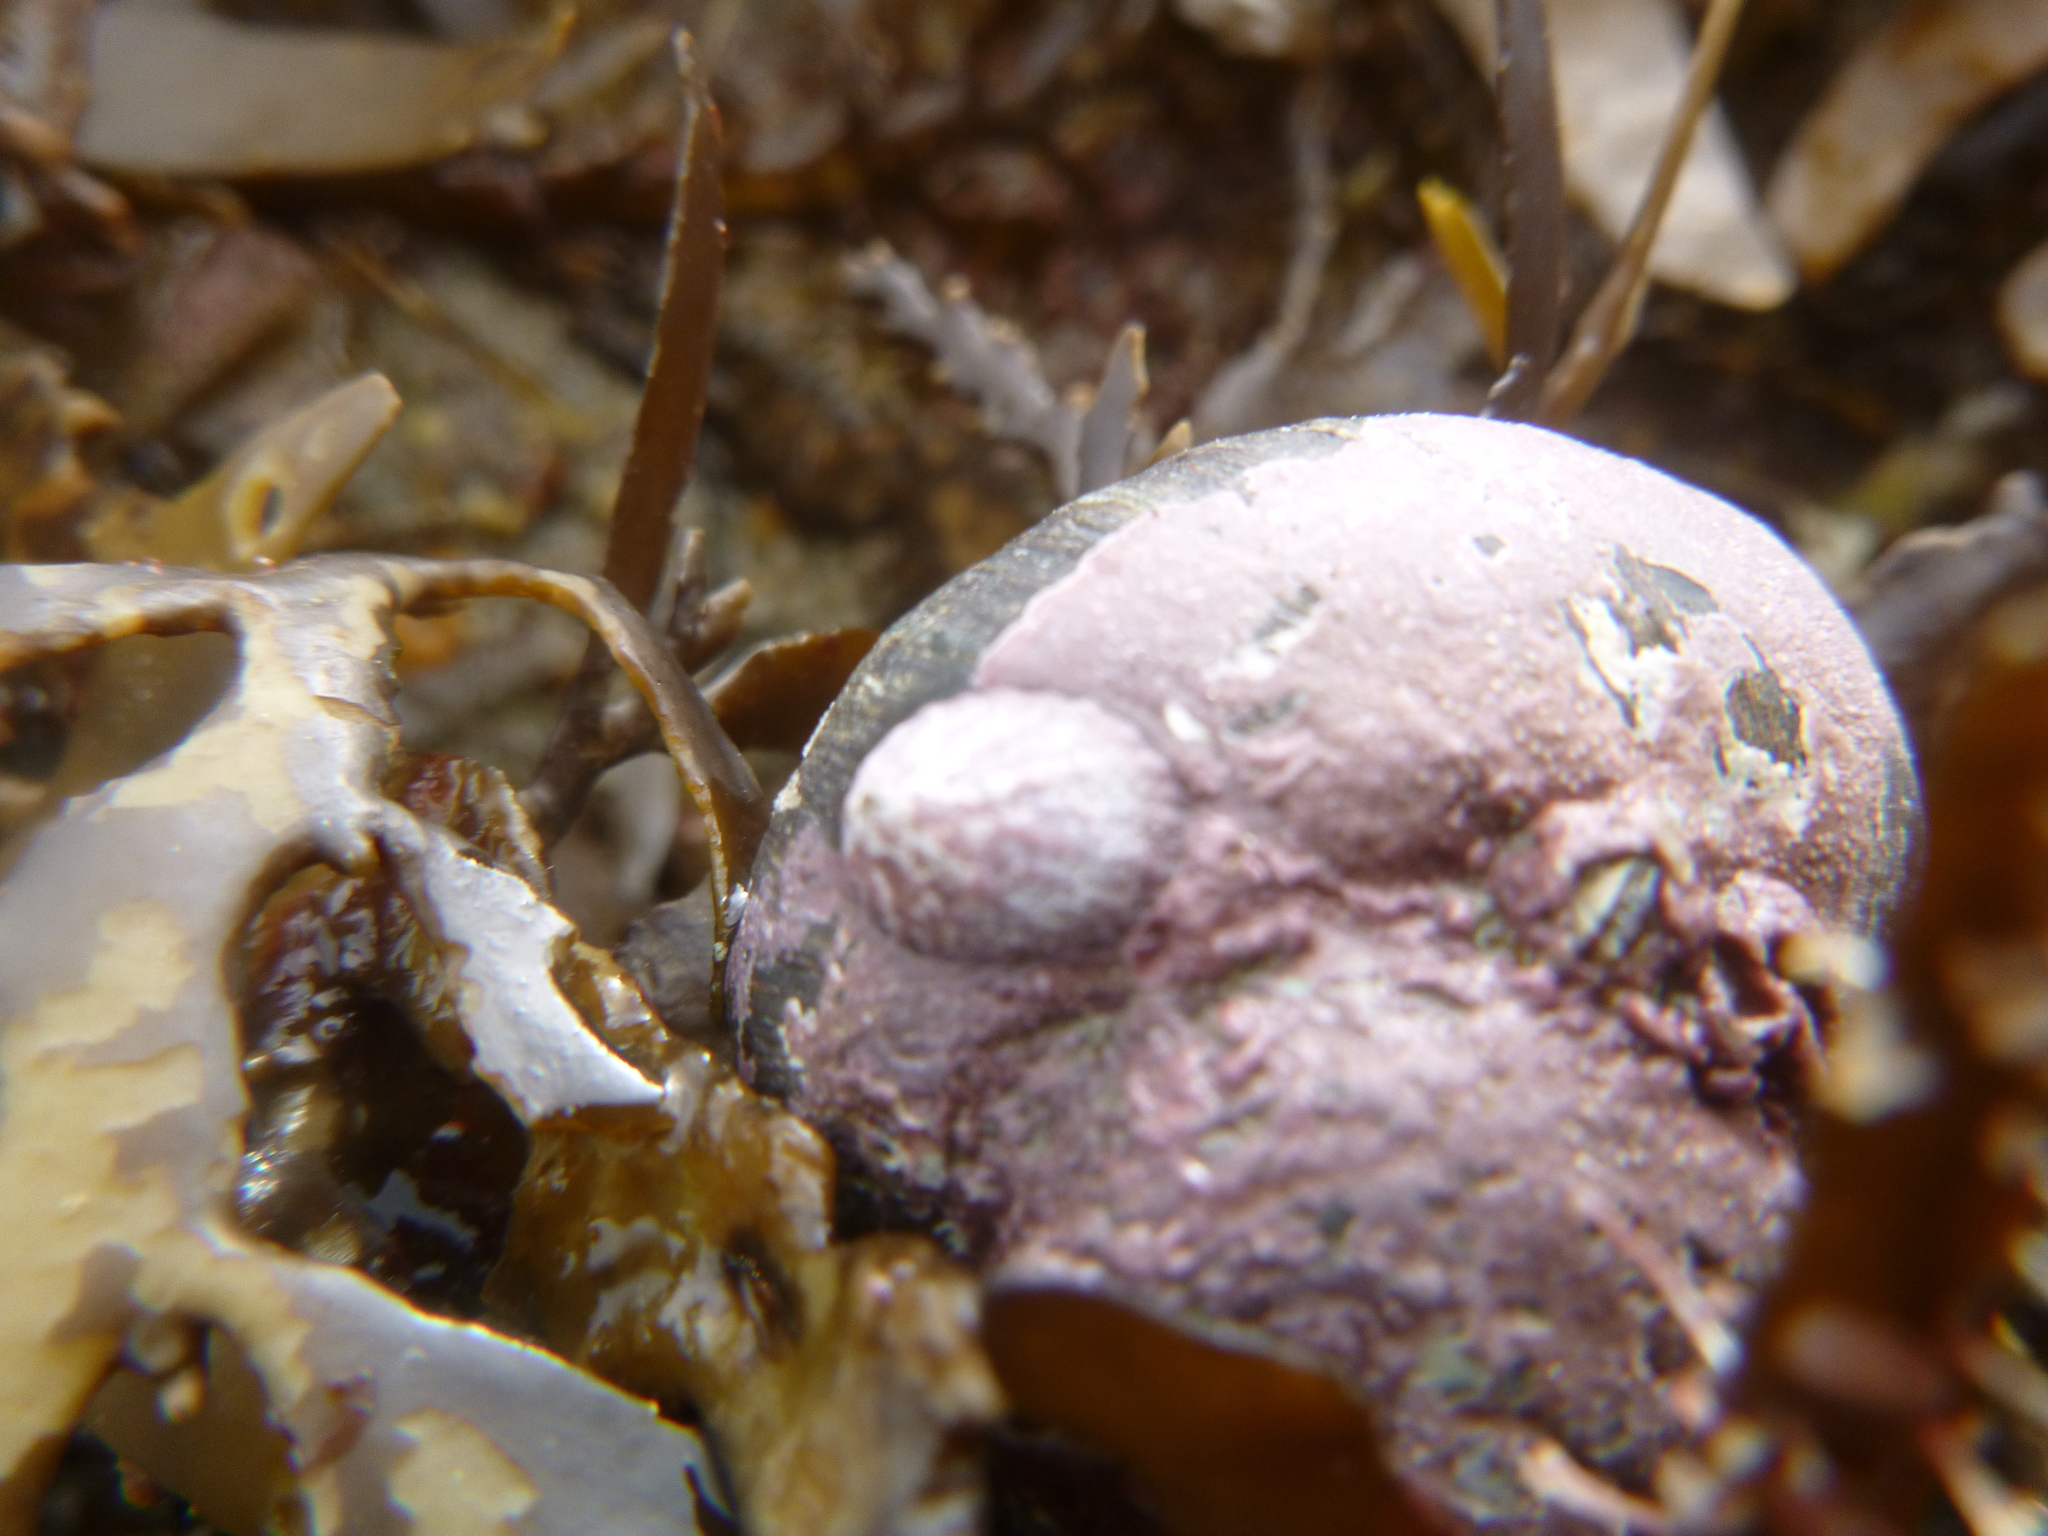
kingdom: Animalia
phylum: Mollusca
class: Gastropoda
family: Lottiidae
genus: Radiacmea
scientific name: Radiacmea inconspicua
